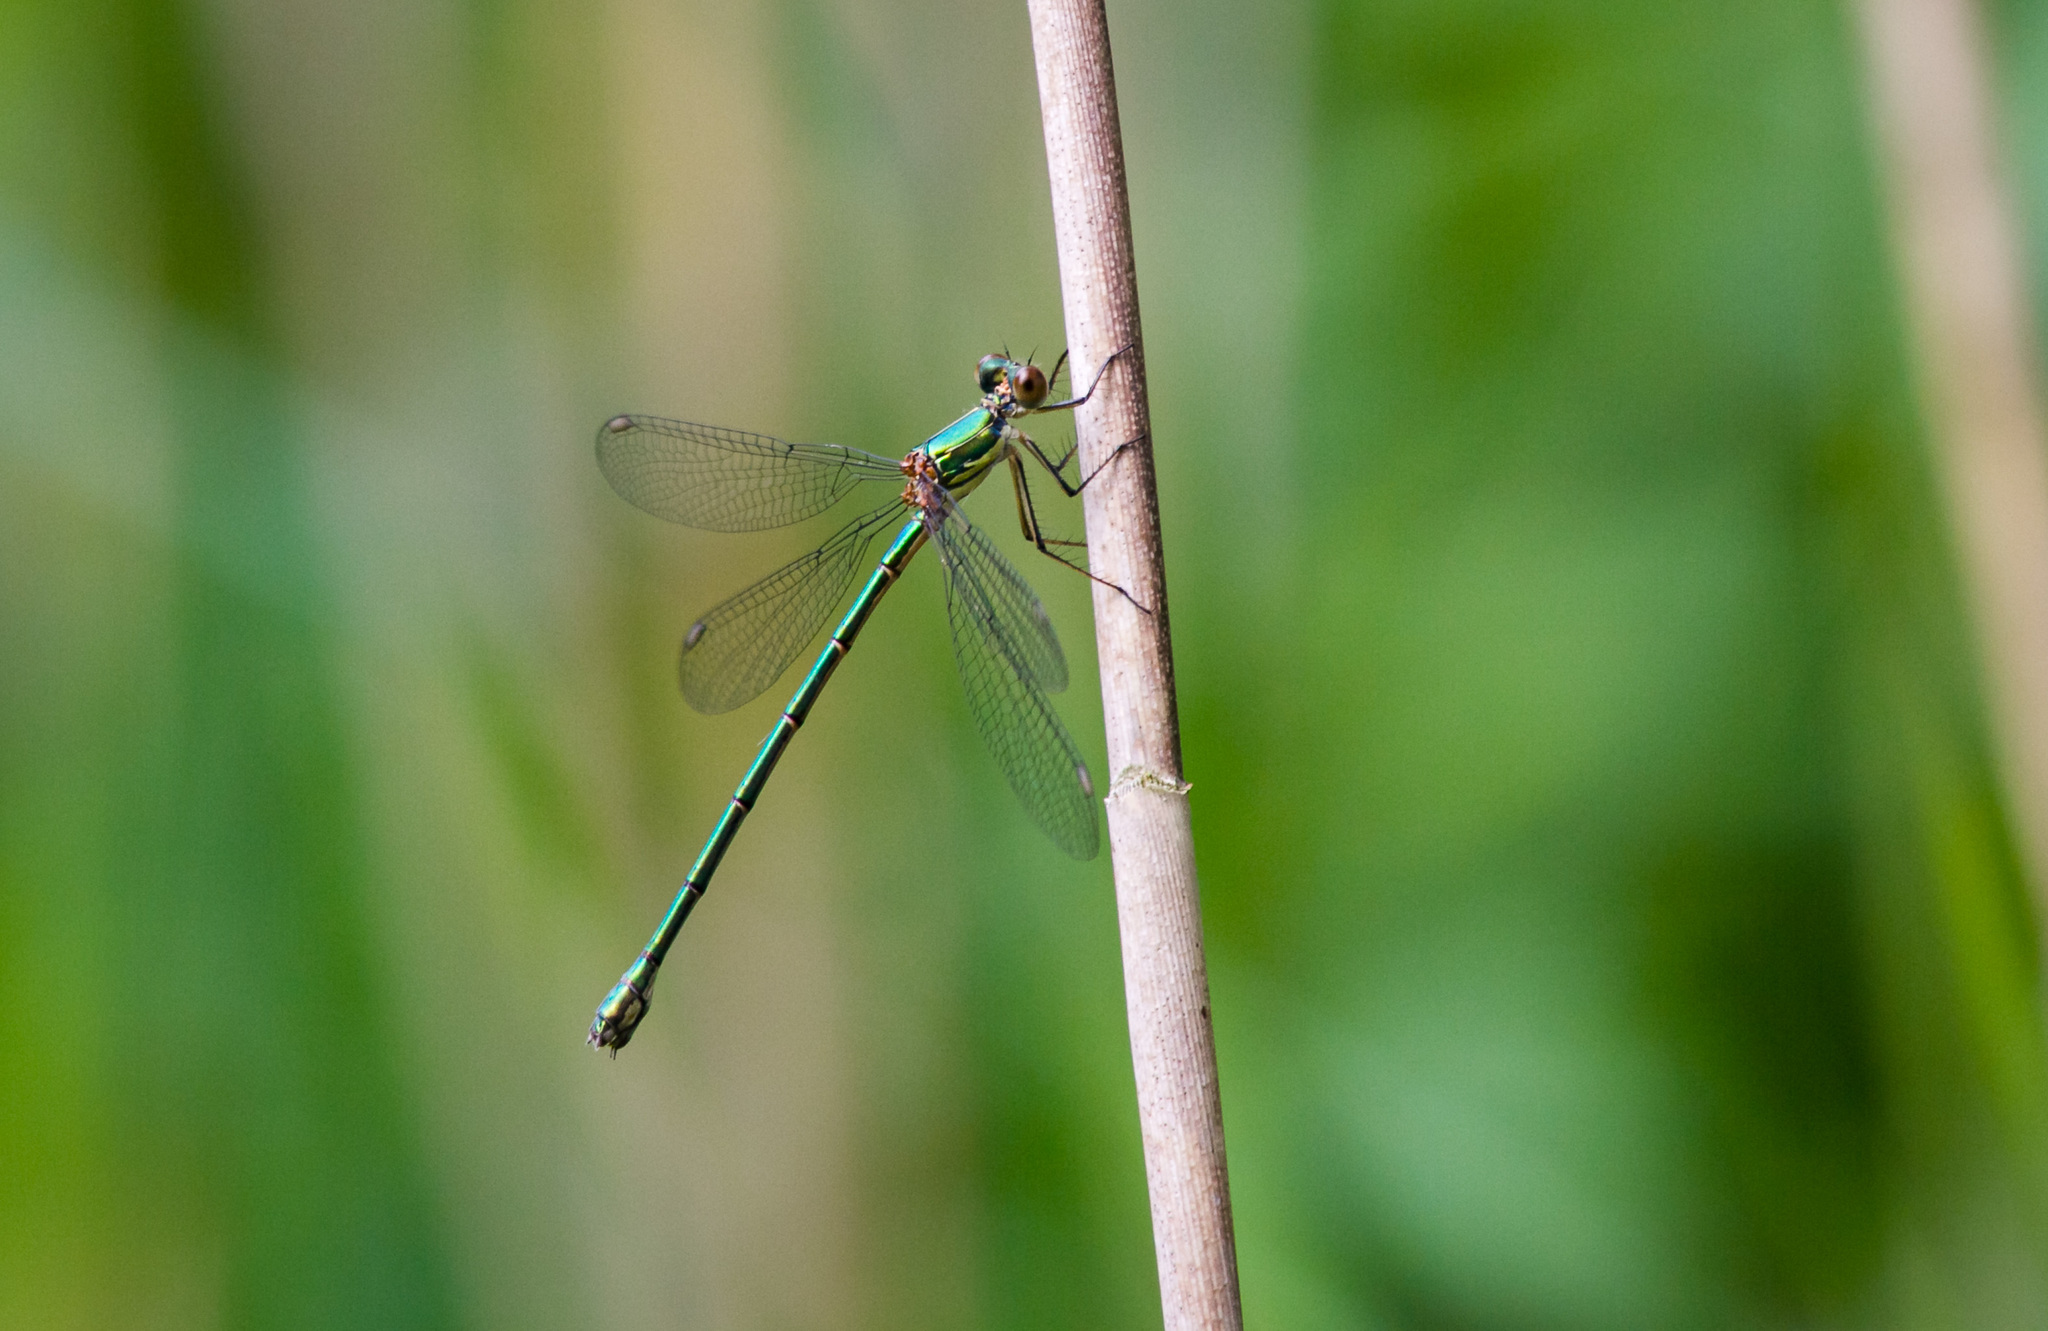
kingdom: Animalia
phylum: Arthropoda
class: Insecta
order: Odonata
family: Lestidae
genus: Chalcolestes
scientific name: Chalcolestes viridis
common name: Green emerald damselfly
